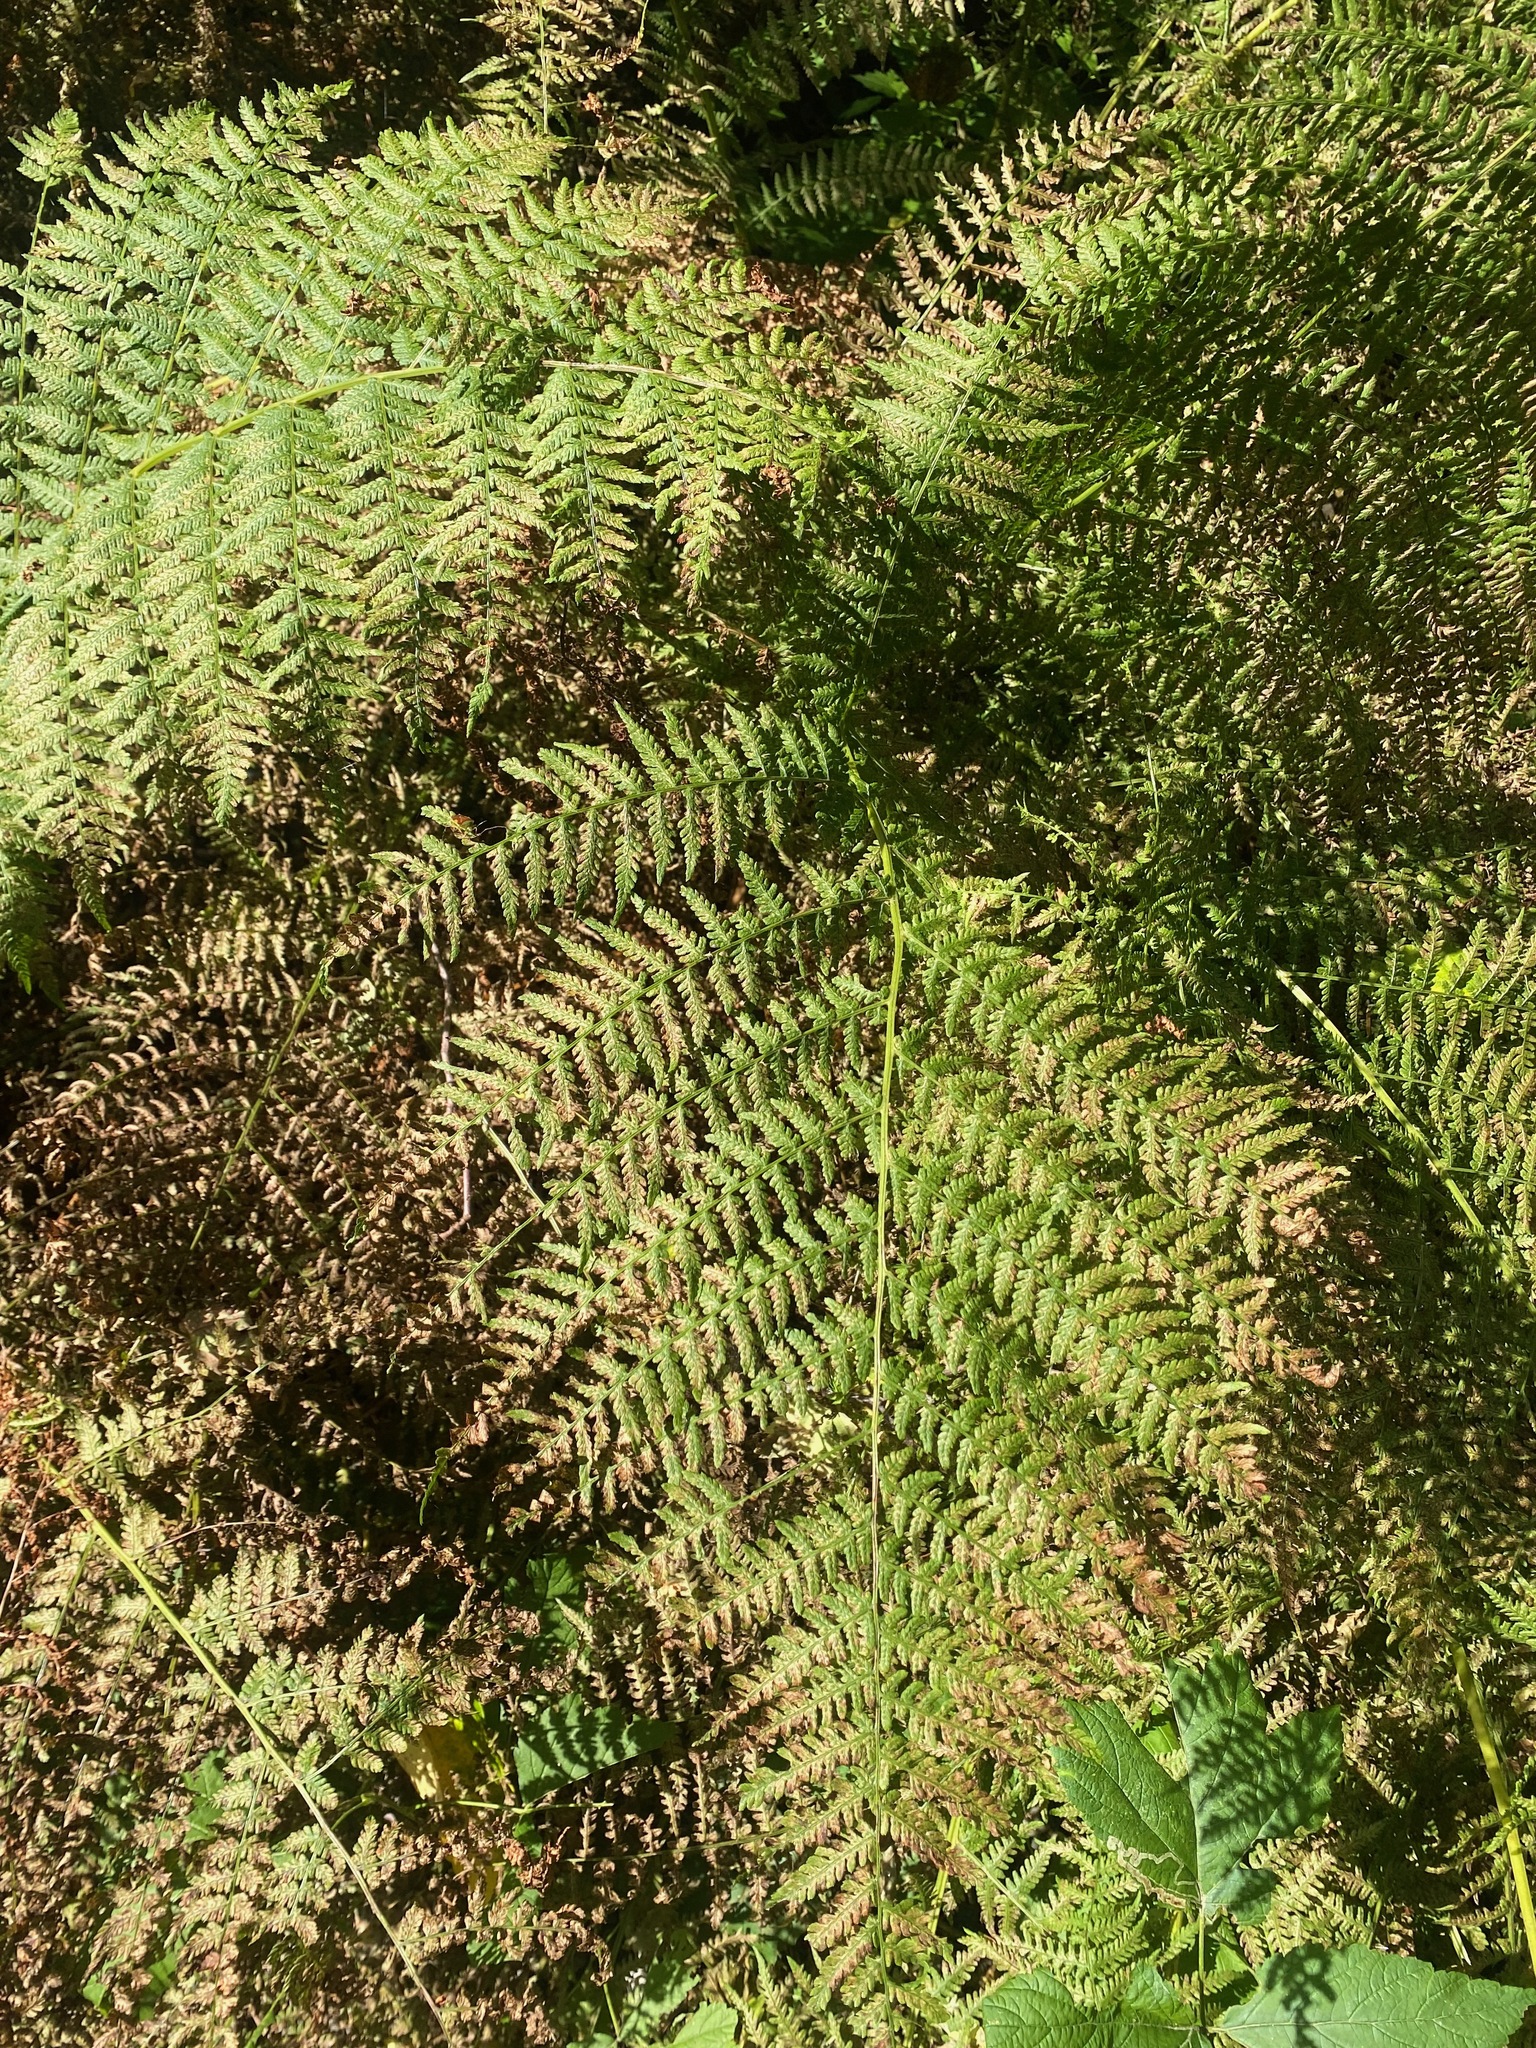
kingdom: Plantae
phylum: Tracheophyta
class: Polypodiopsida
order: Polypodiales
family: Athyriaceae
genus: Athyrium
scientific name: Athyrium filix-femina
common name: Lady fern
